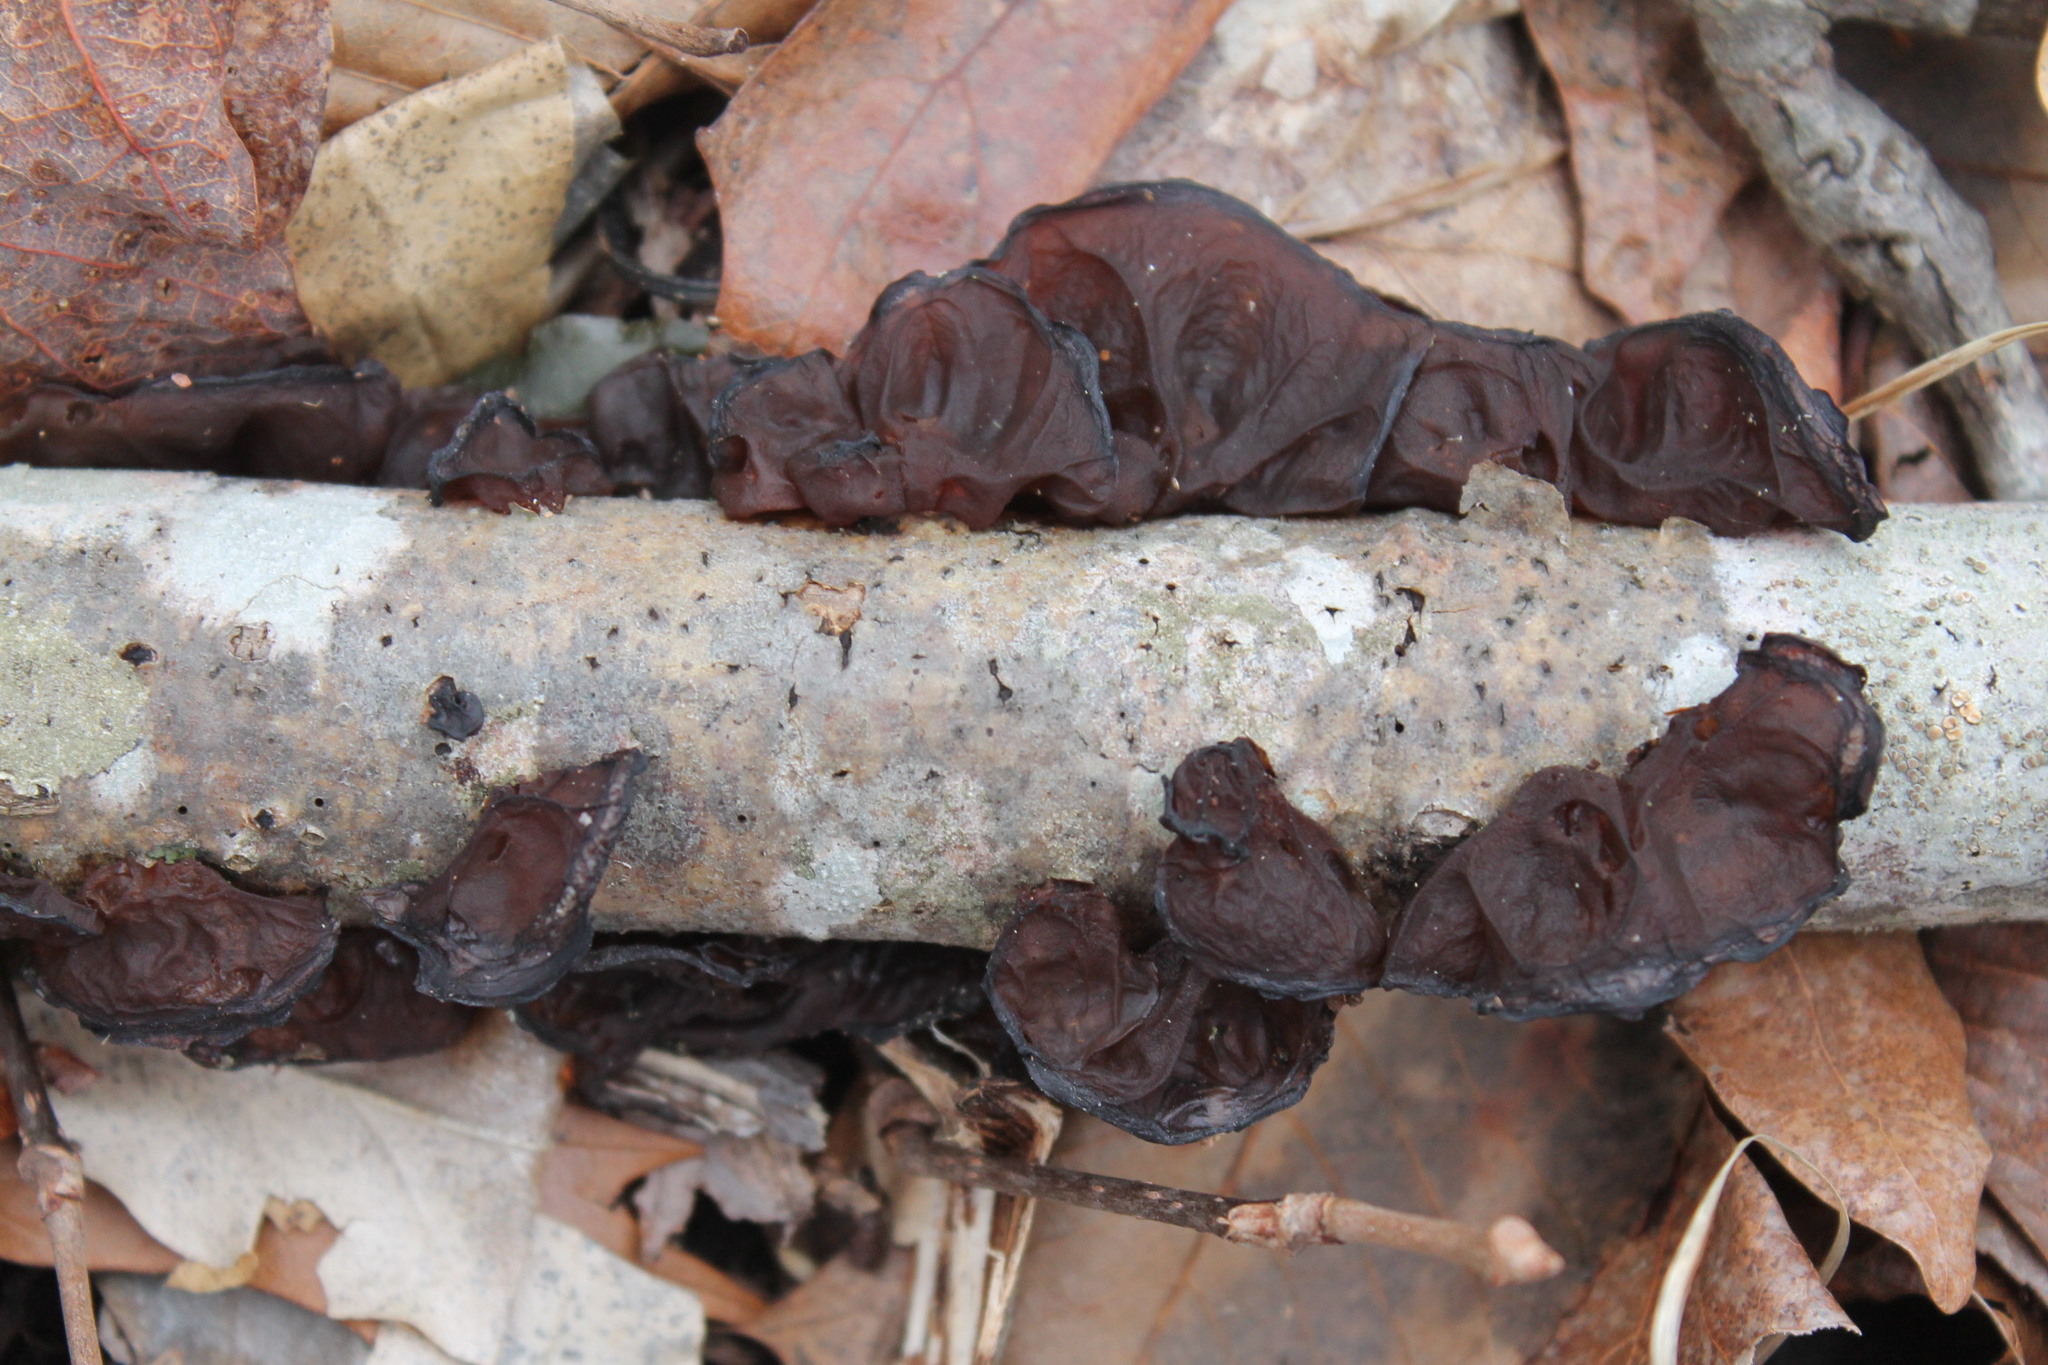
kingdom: Fungi
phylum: Basidiomycota
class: Agaricomycetes
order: Auriculariales
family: Auriculariaceae
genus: Exidia
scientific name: Exidia
